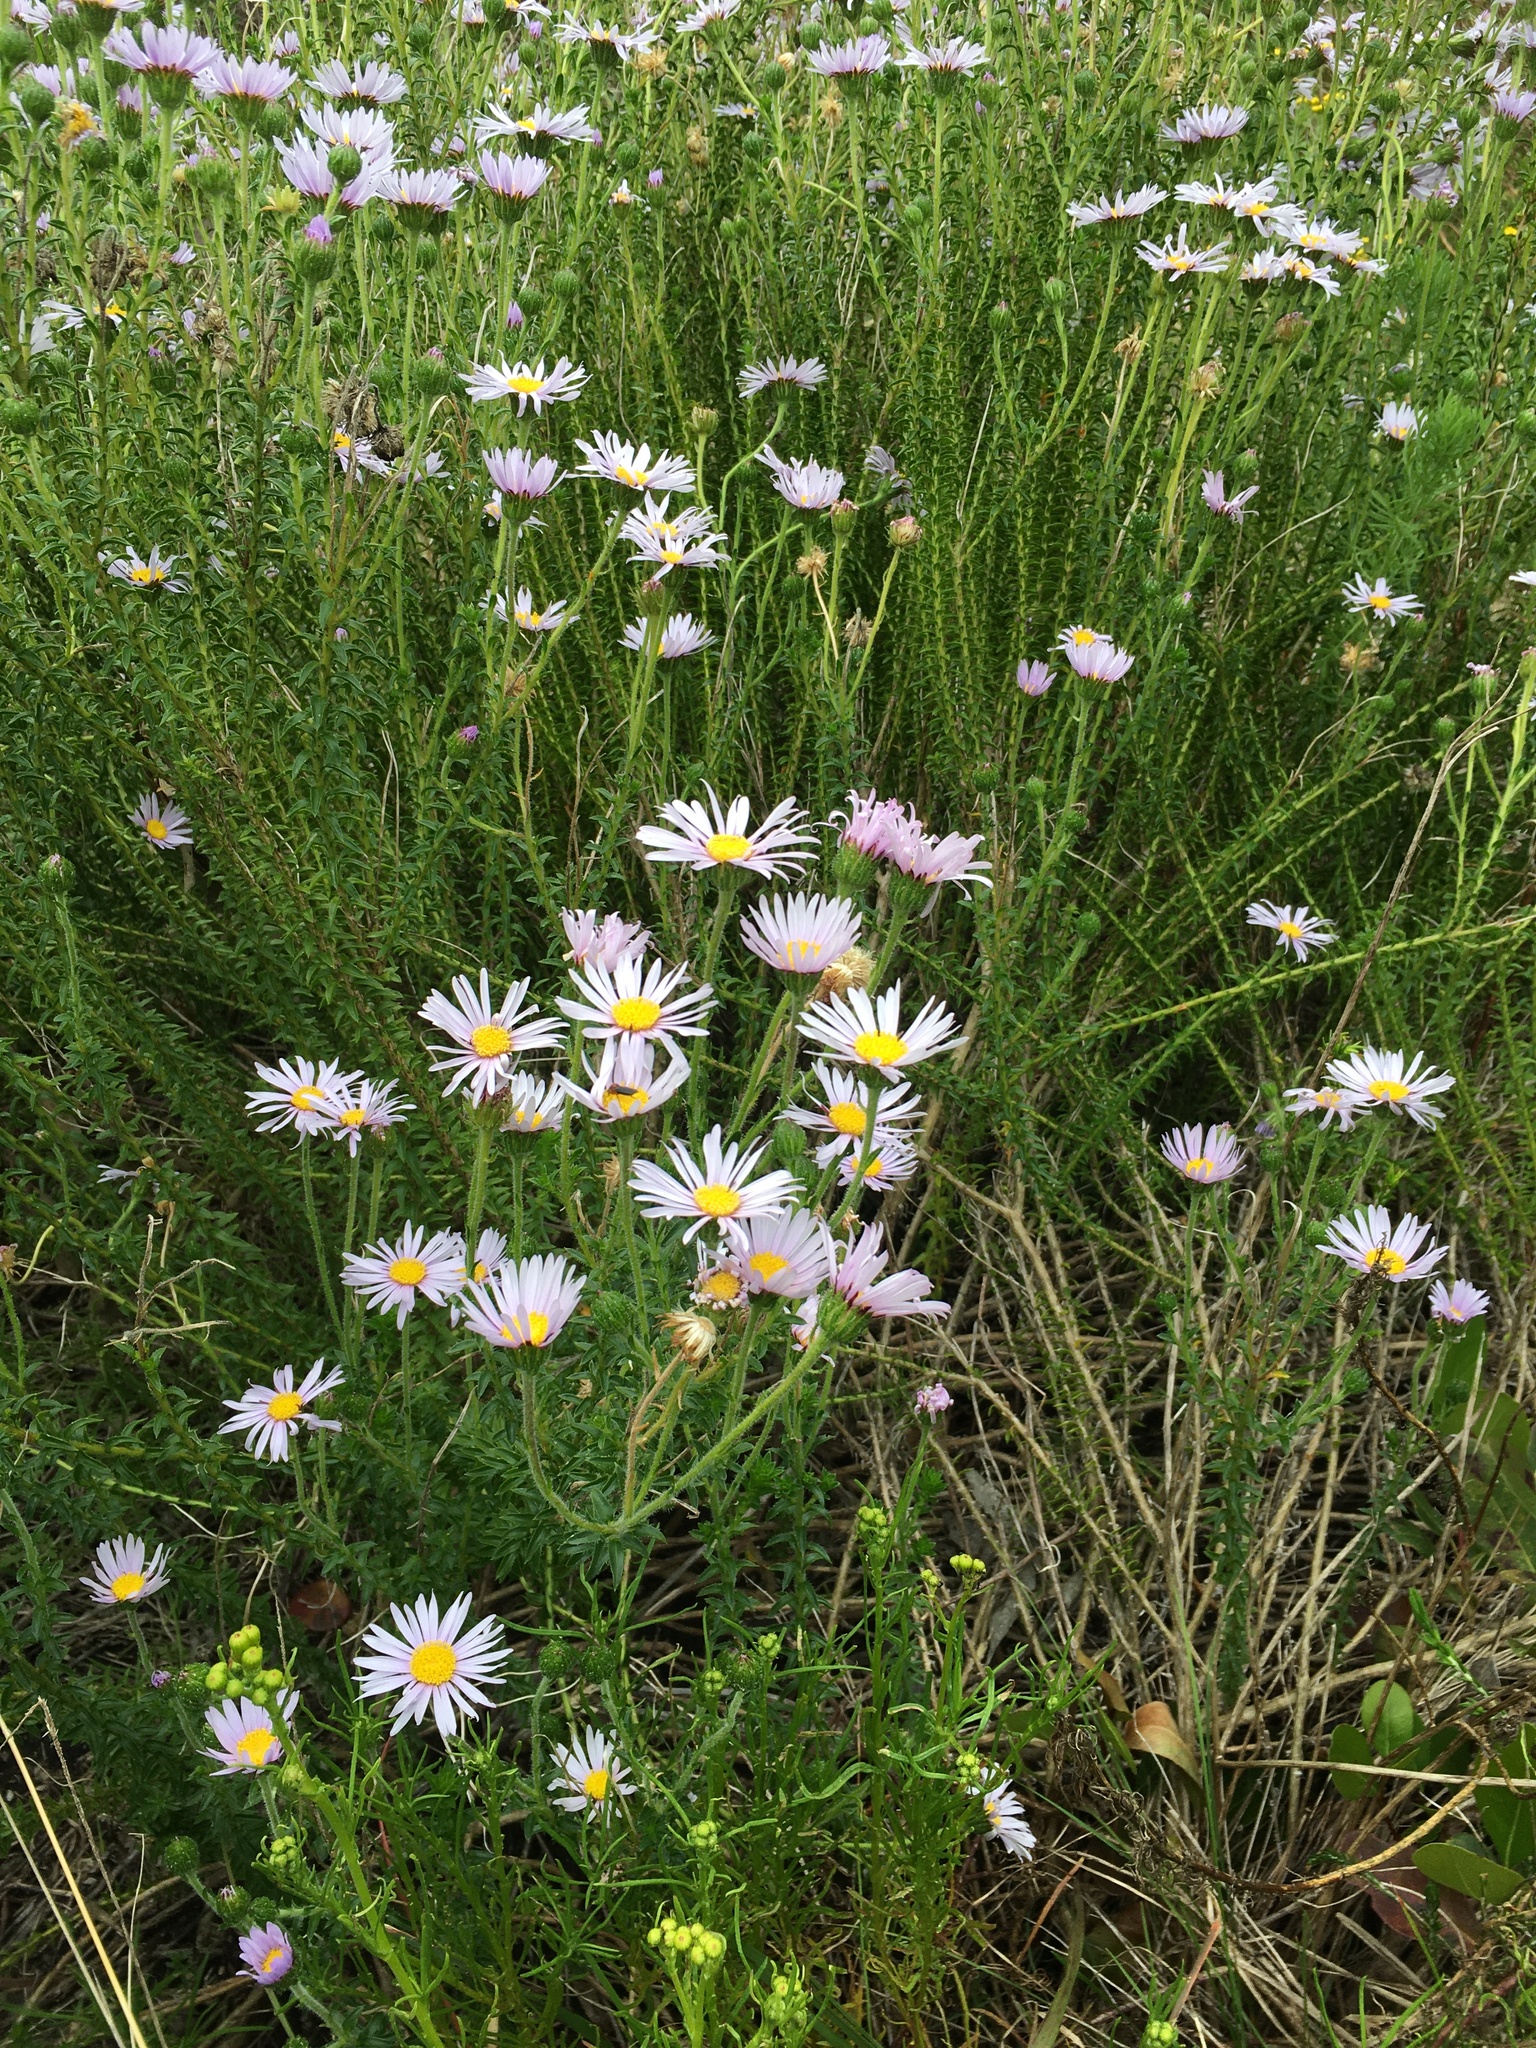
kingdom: Plantae
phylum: Tracheophyta
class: Magnoliopsida
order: Asterales
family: Asteraceae
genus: Felicia
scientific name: Felicia echinata
